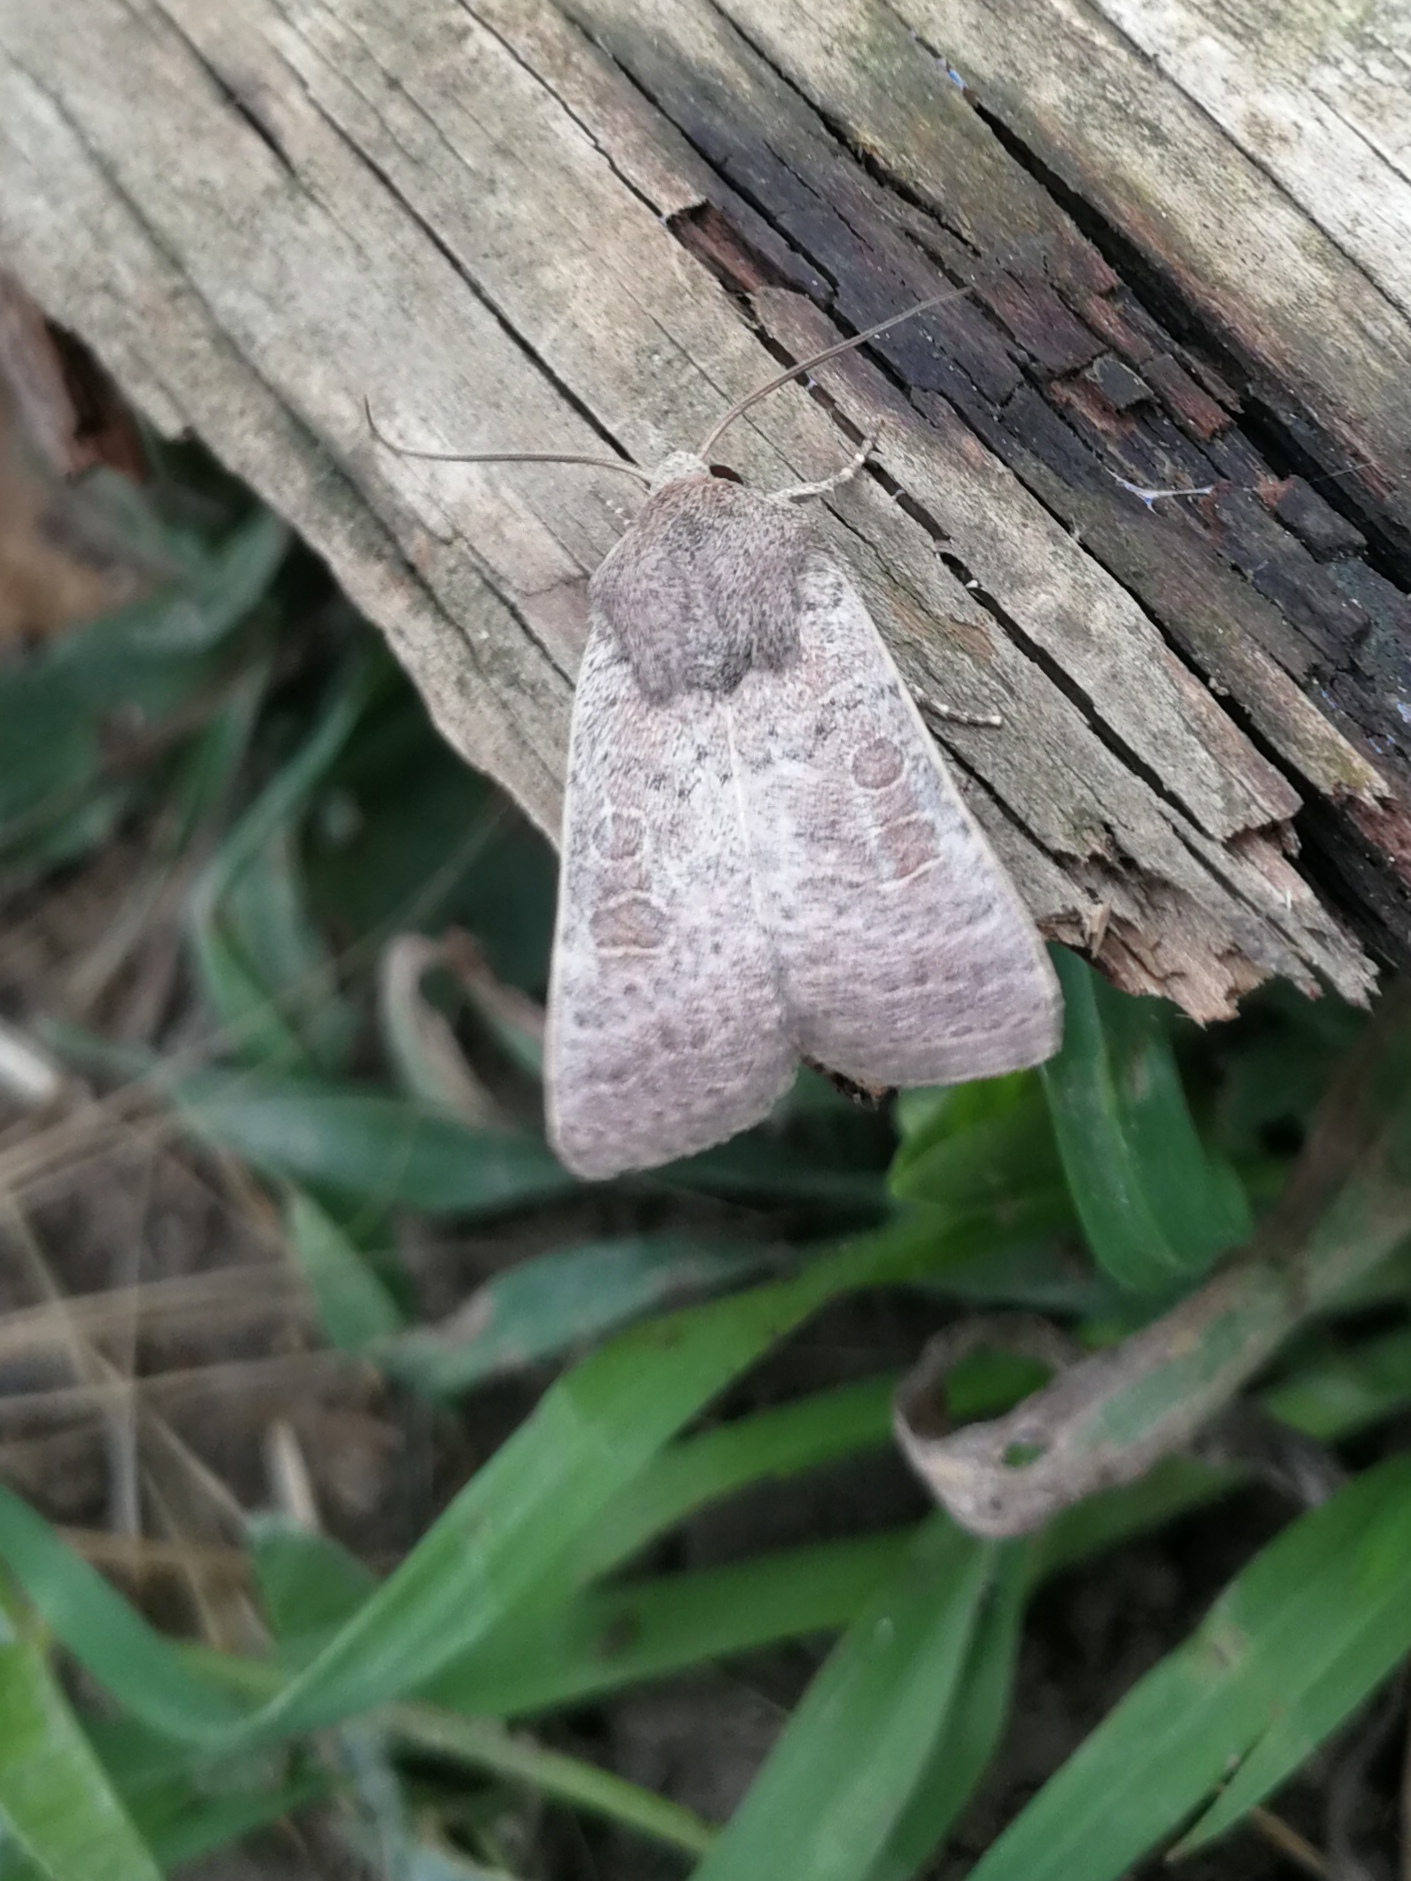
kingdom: Animalia
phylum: Arthropoda
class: Insecta
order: Lepidoptera
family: Noctuidae
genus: Hoplodrina
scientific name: Hoplodrina ambigua
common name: Vine's rustic
